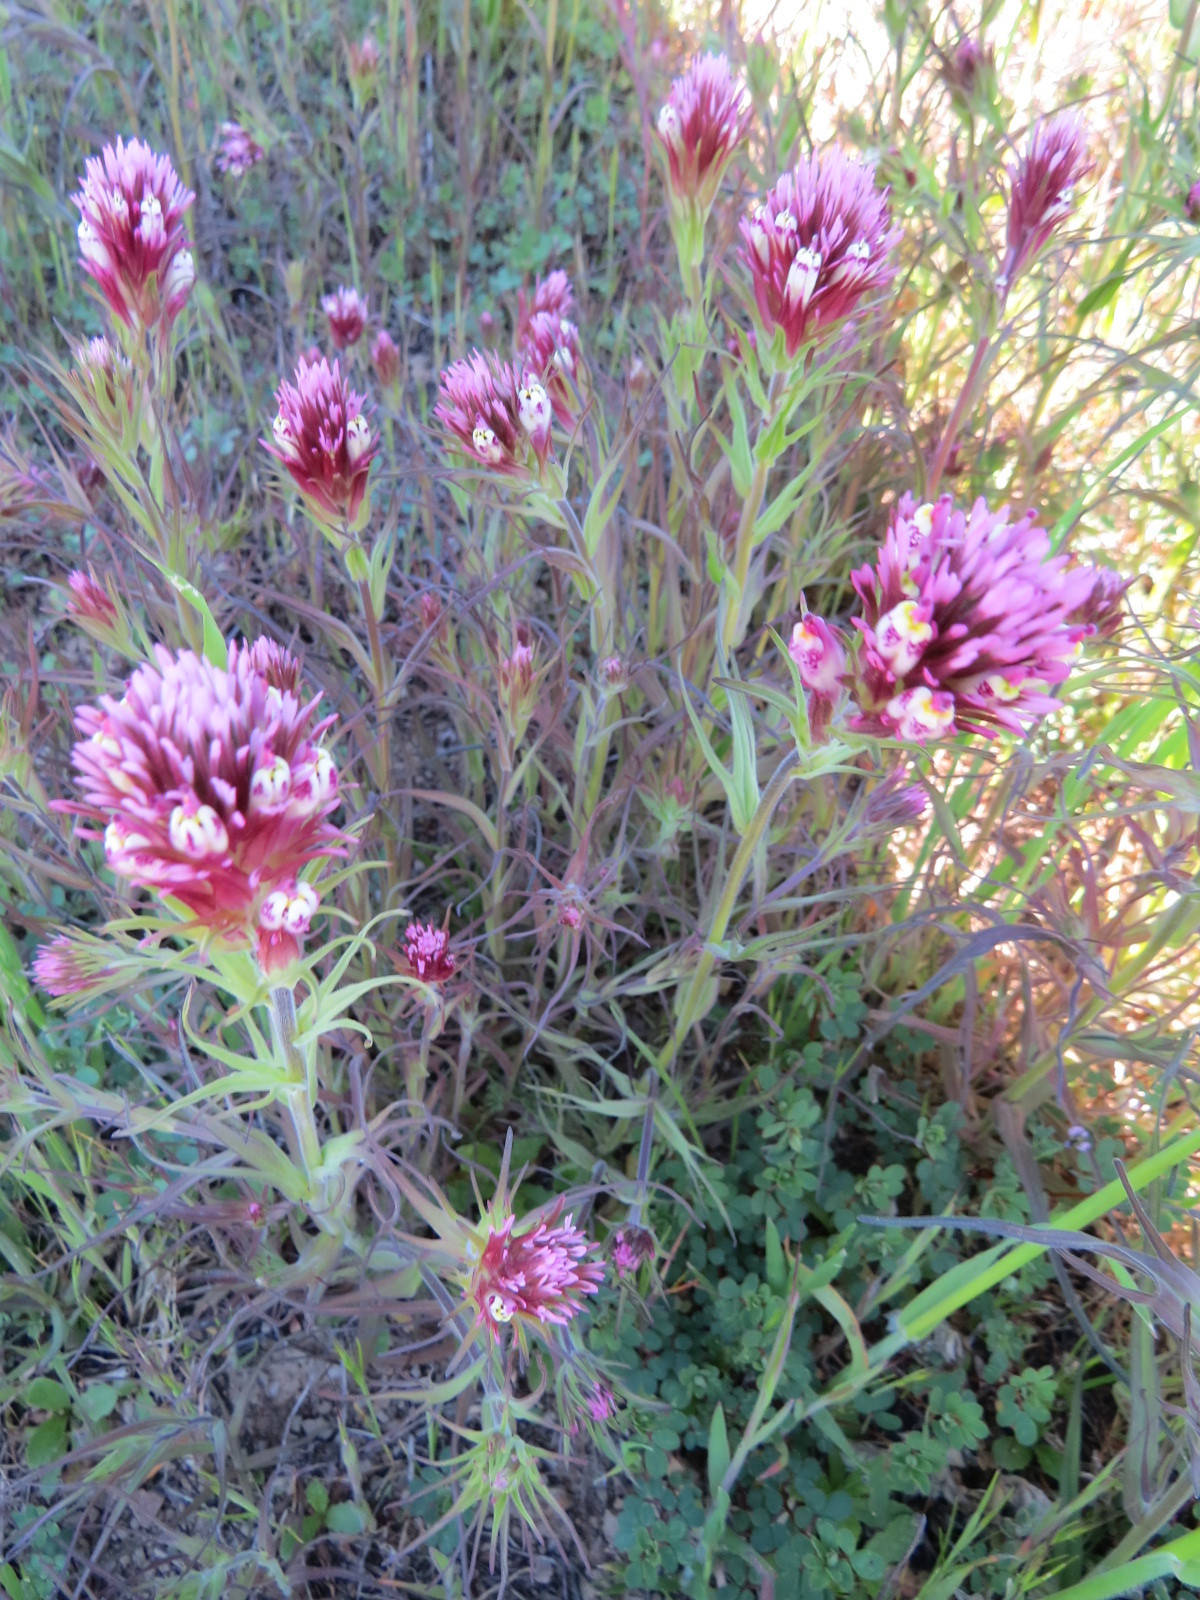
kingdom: Plantae
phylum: Tracheophyta
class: Magnoliopsida
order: Lamiales
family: Orobanchaceae
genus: Castilleja
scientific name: Castilleja densiflora
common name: Dense-flower indian paintbrush
